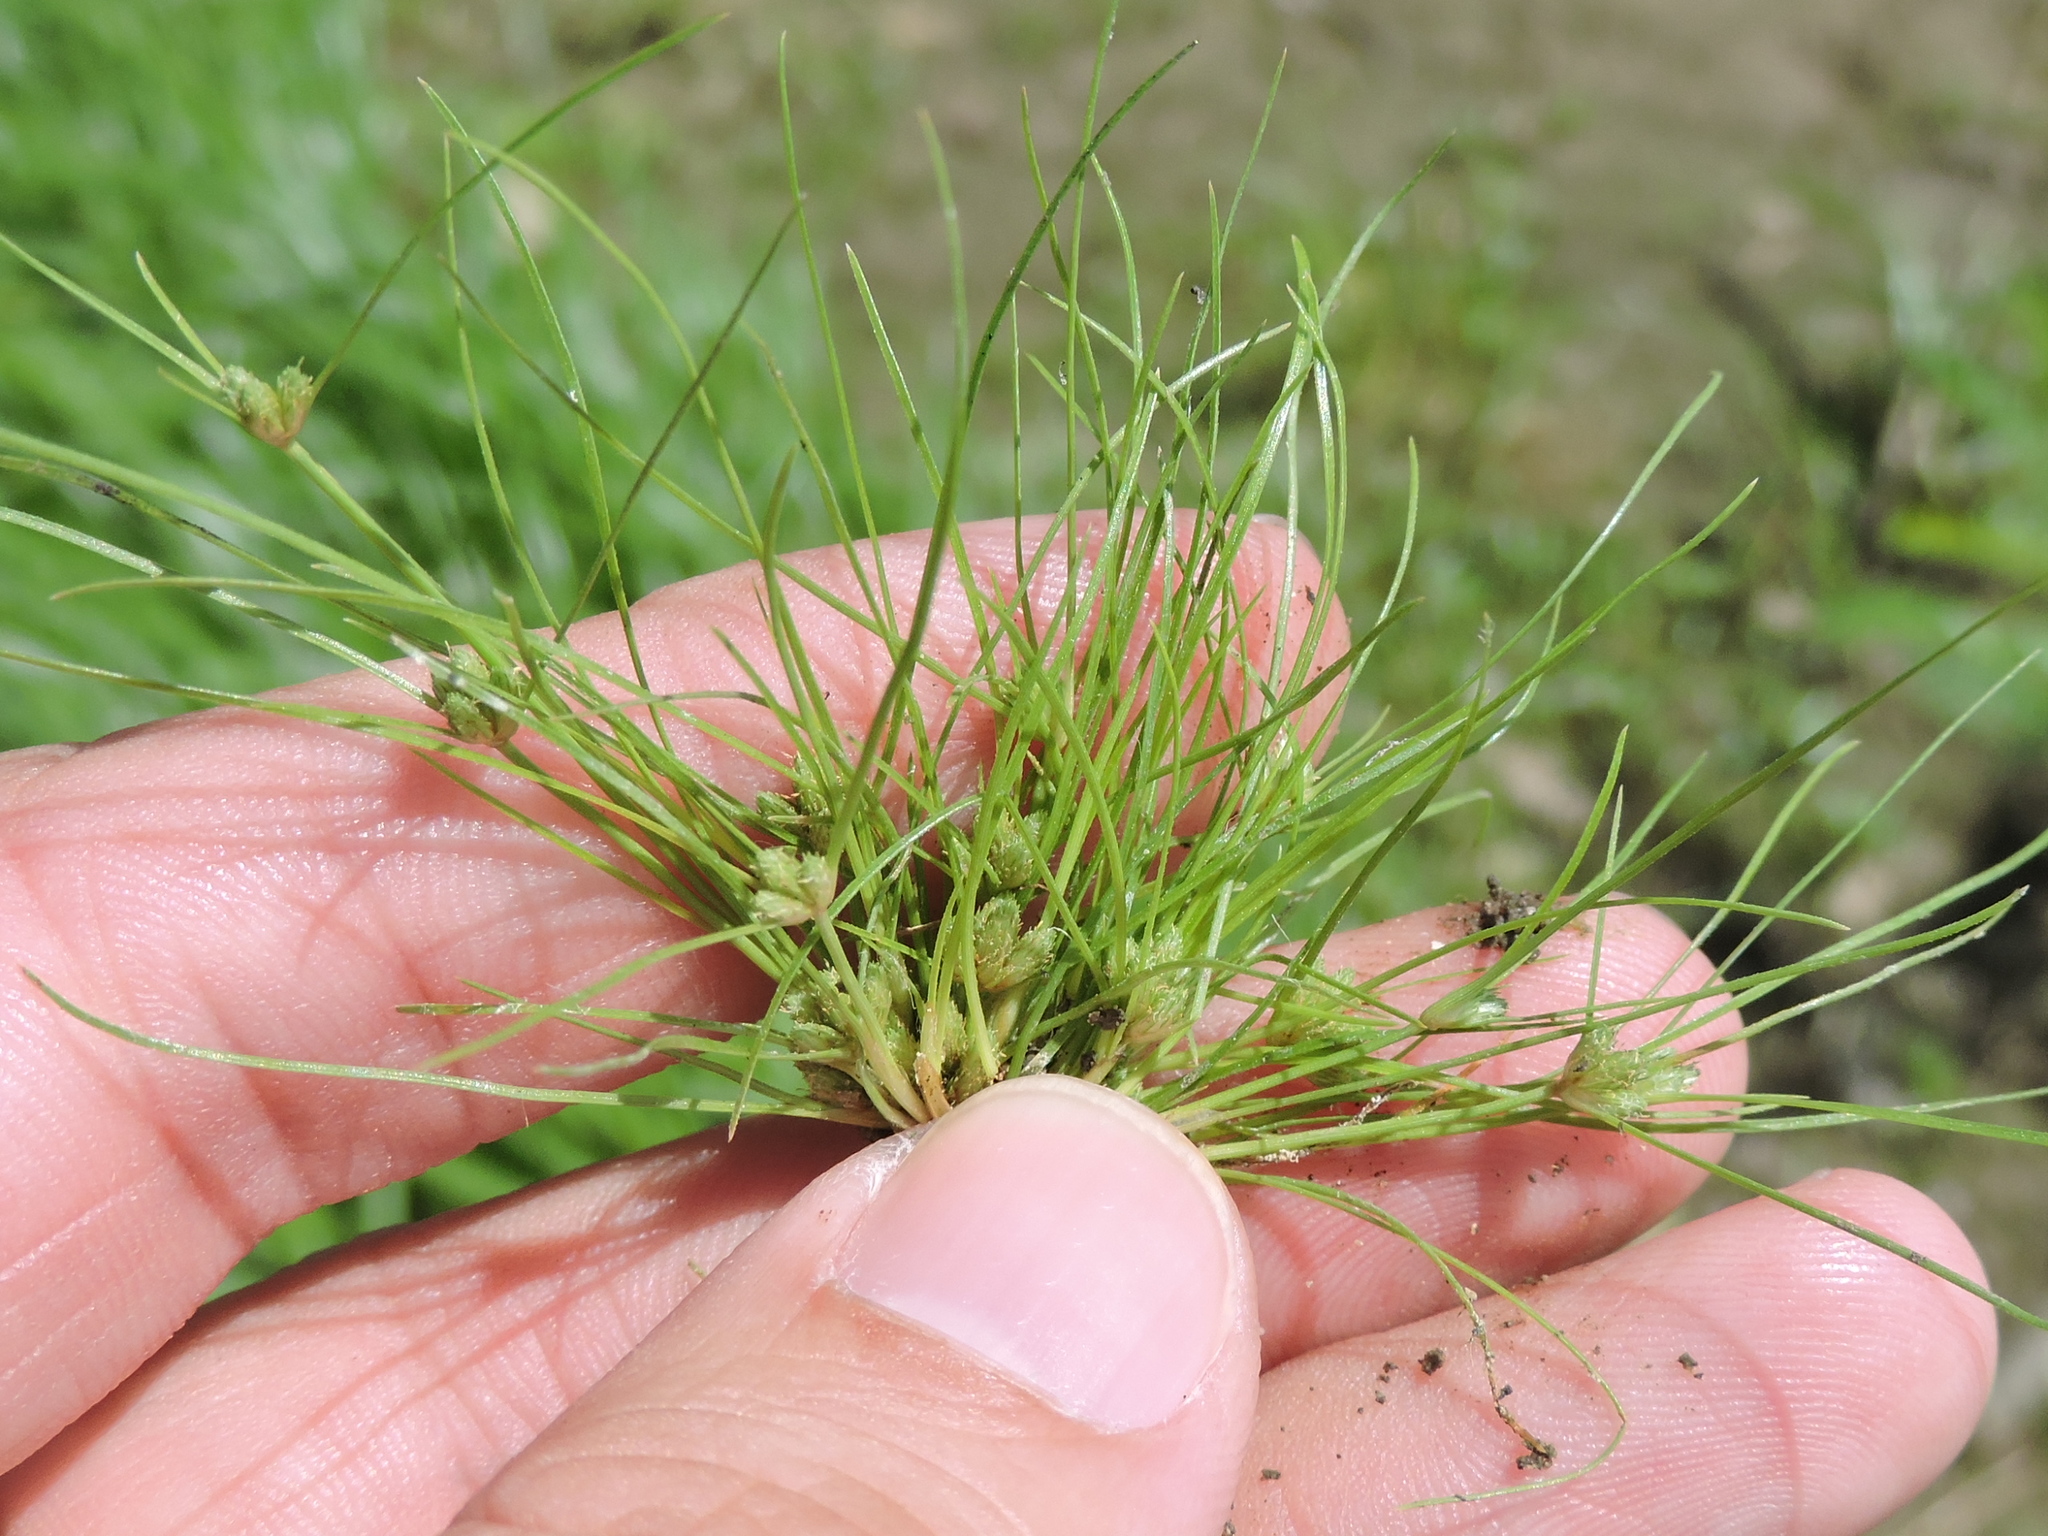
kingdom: Plantae
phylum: Tracheophyta
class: Liliopsida
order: Poales
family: Cyperaceae
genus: Fimbristylis
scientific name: Fimbristylis vahlii
